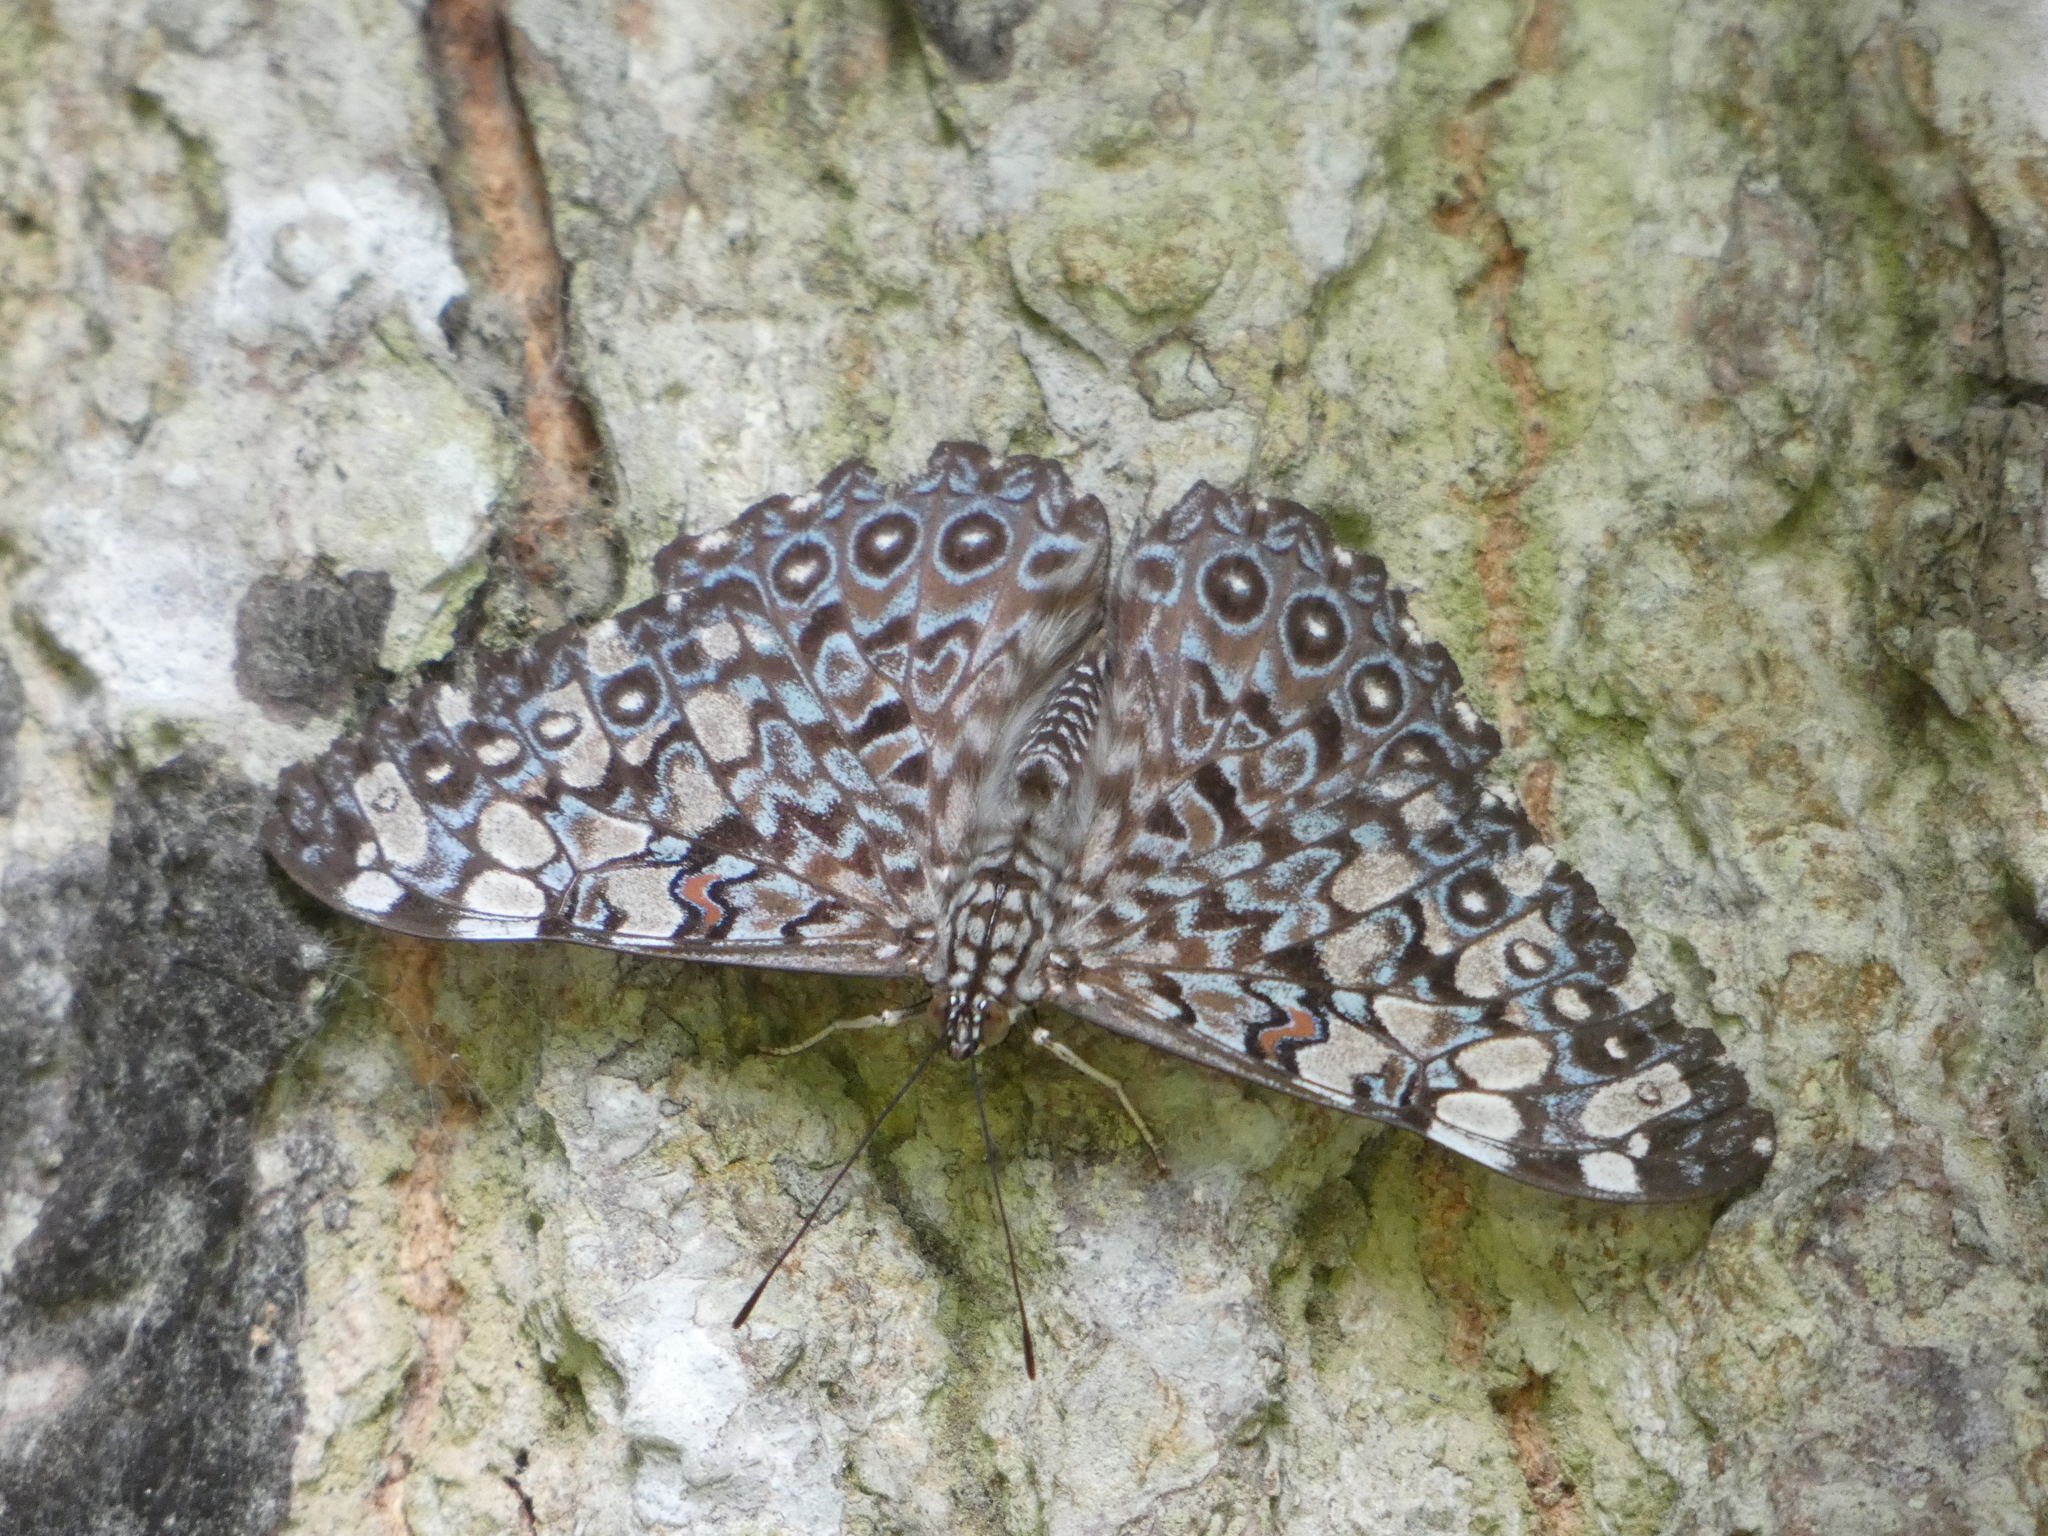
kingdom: Animalia
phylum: Arthropoda
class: Insecta
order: Lepidoptera
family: Nymphalidae
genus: Hamadryas
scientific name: Hamadryas feronia
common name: Variable cracker
